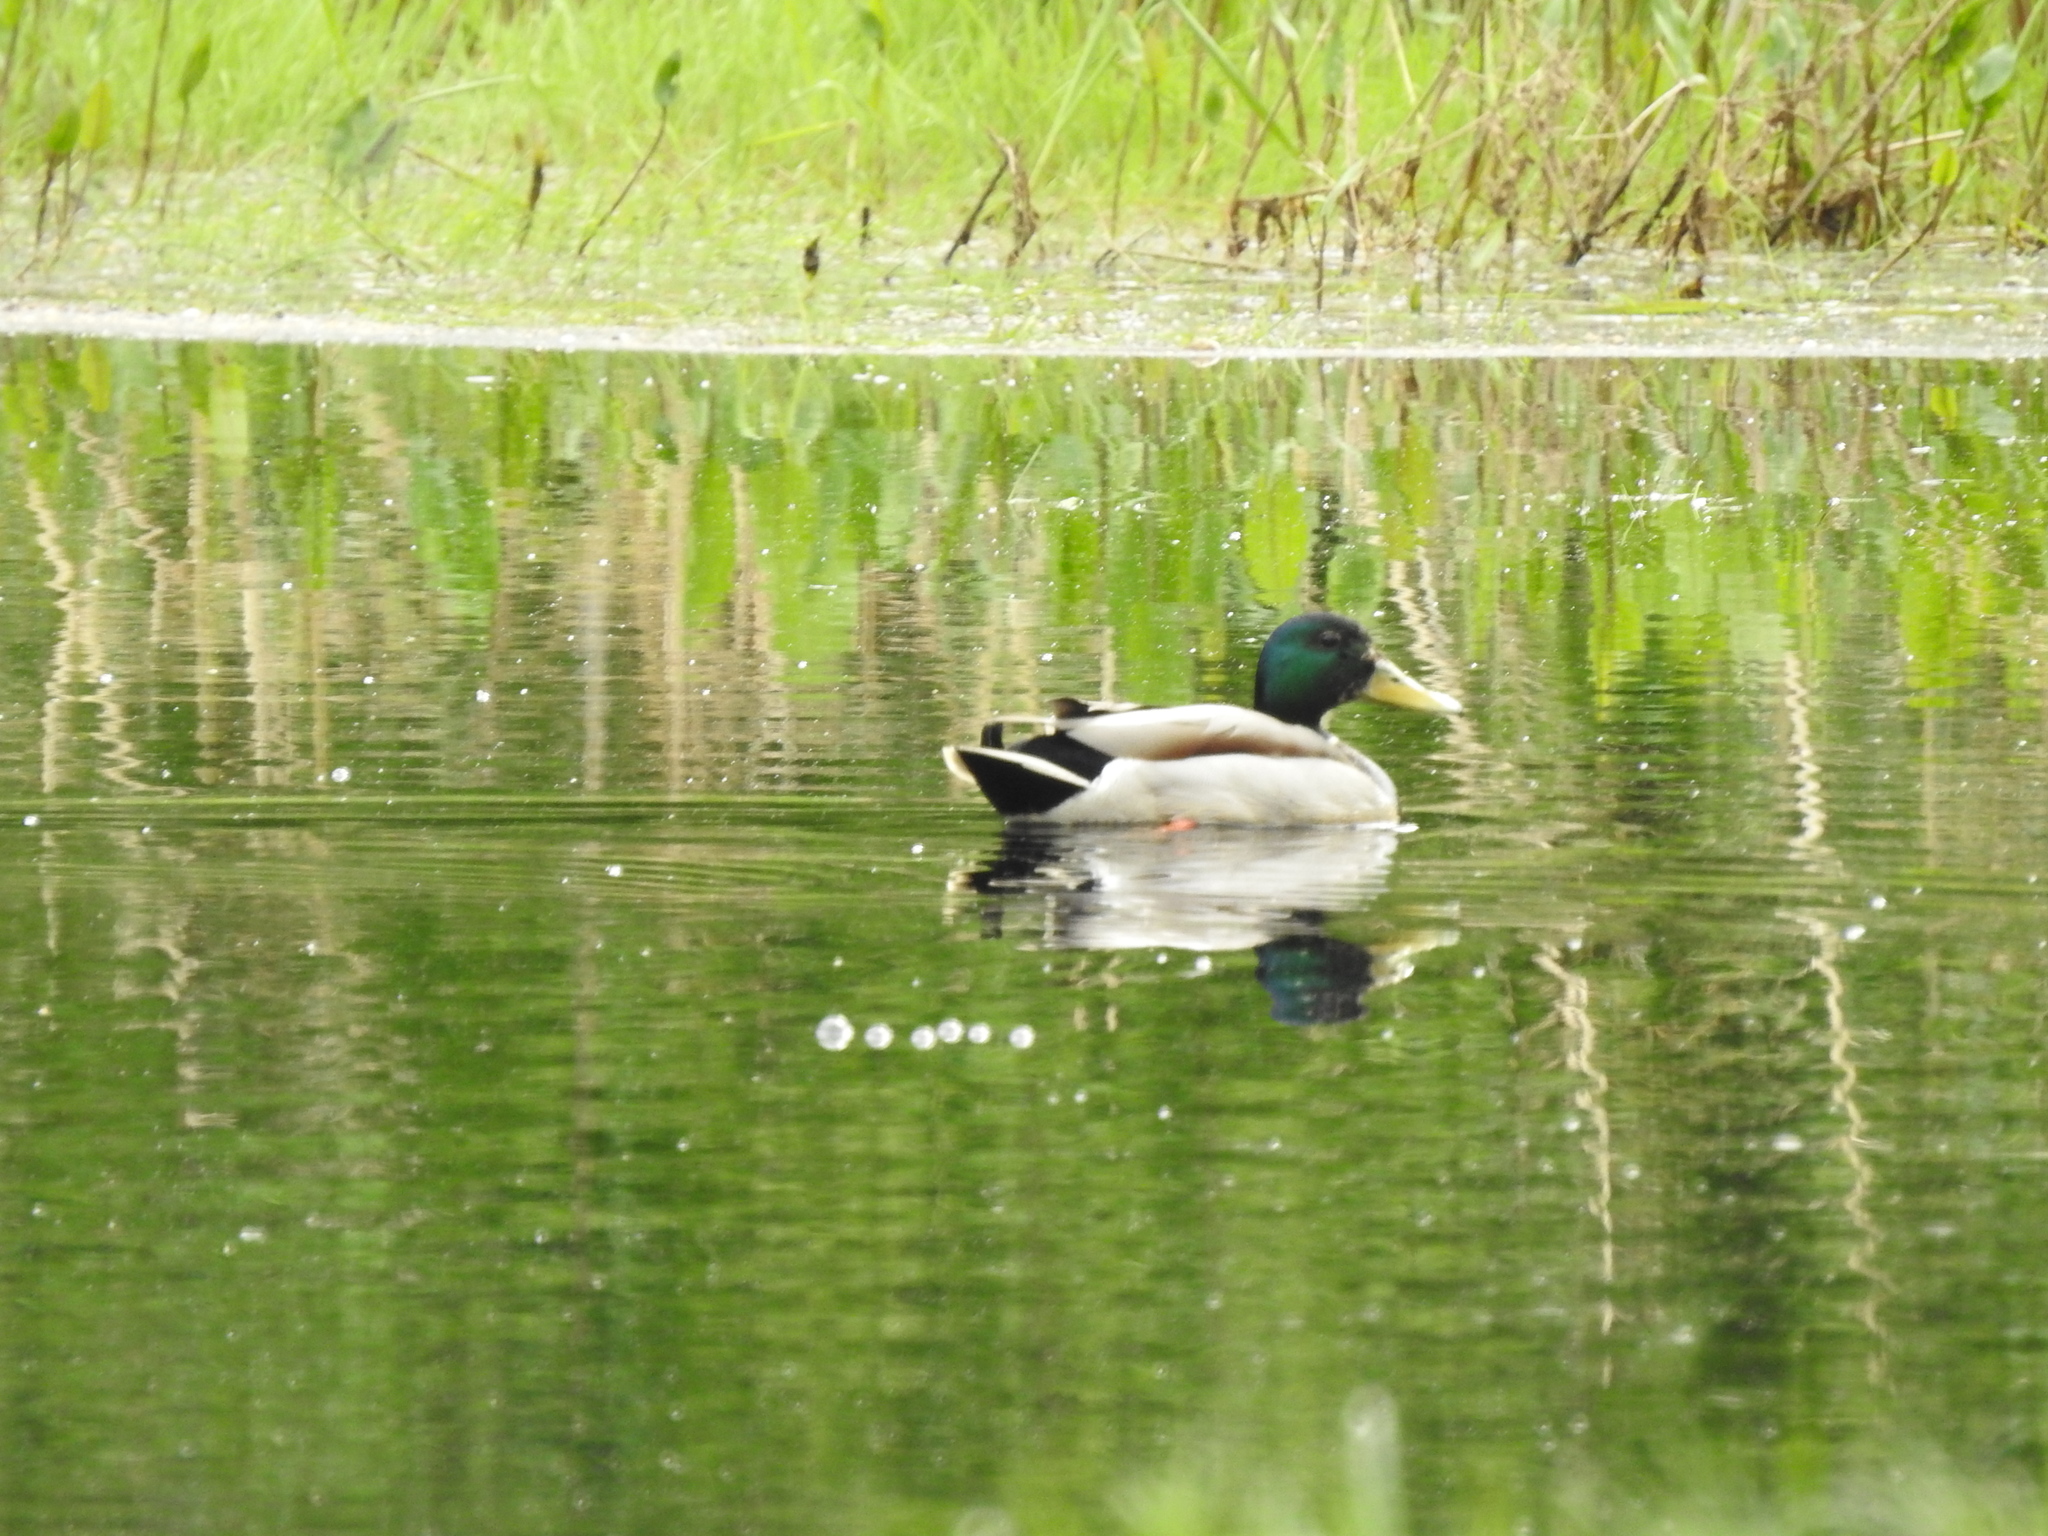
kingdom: Animalia
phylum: Chordata
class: Aves
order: Anseriformes
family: Anatidae
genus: Anas
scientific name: Anas platyrhynchos
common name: Mallard
